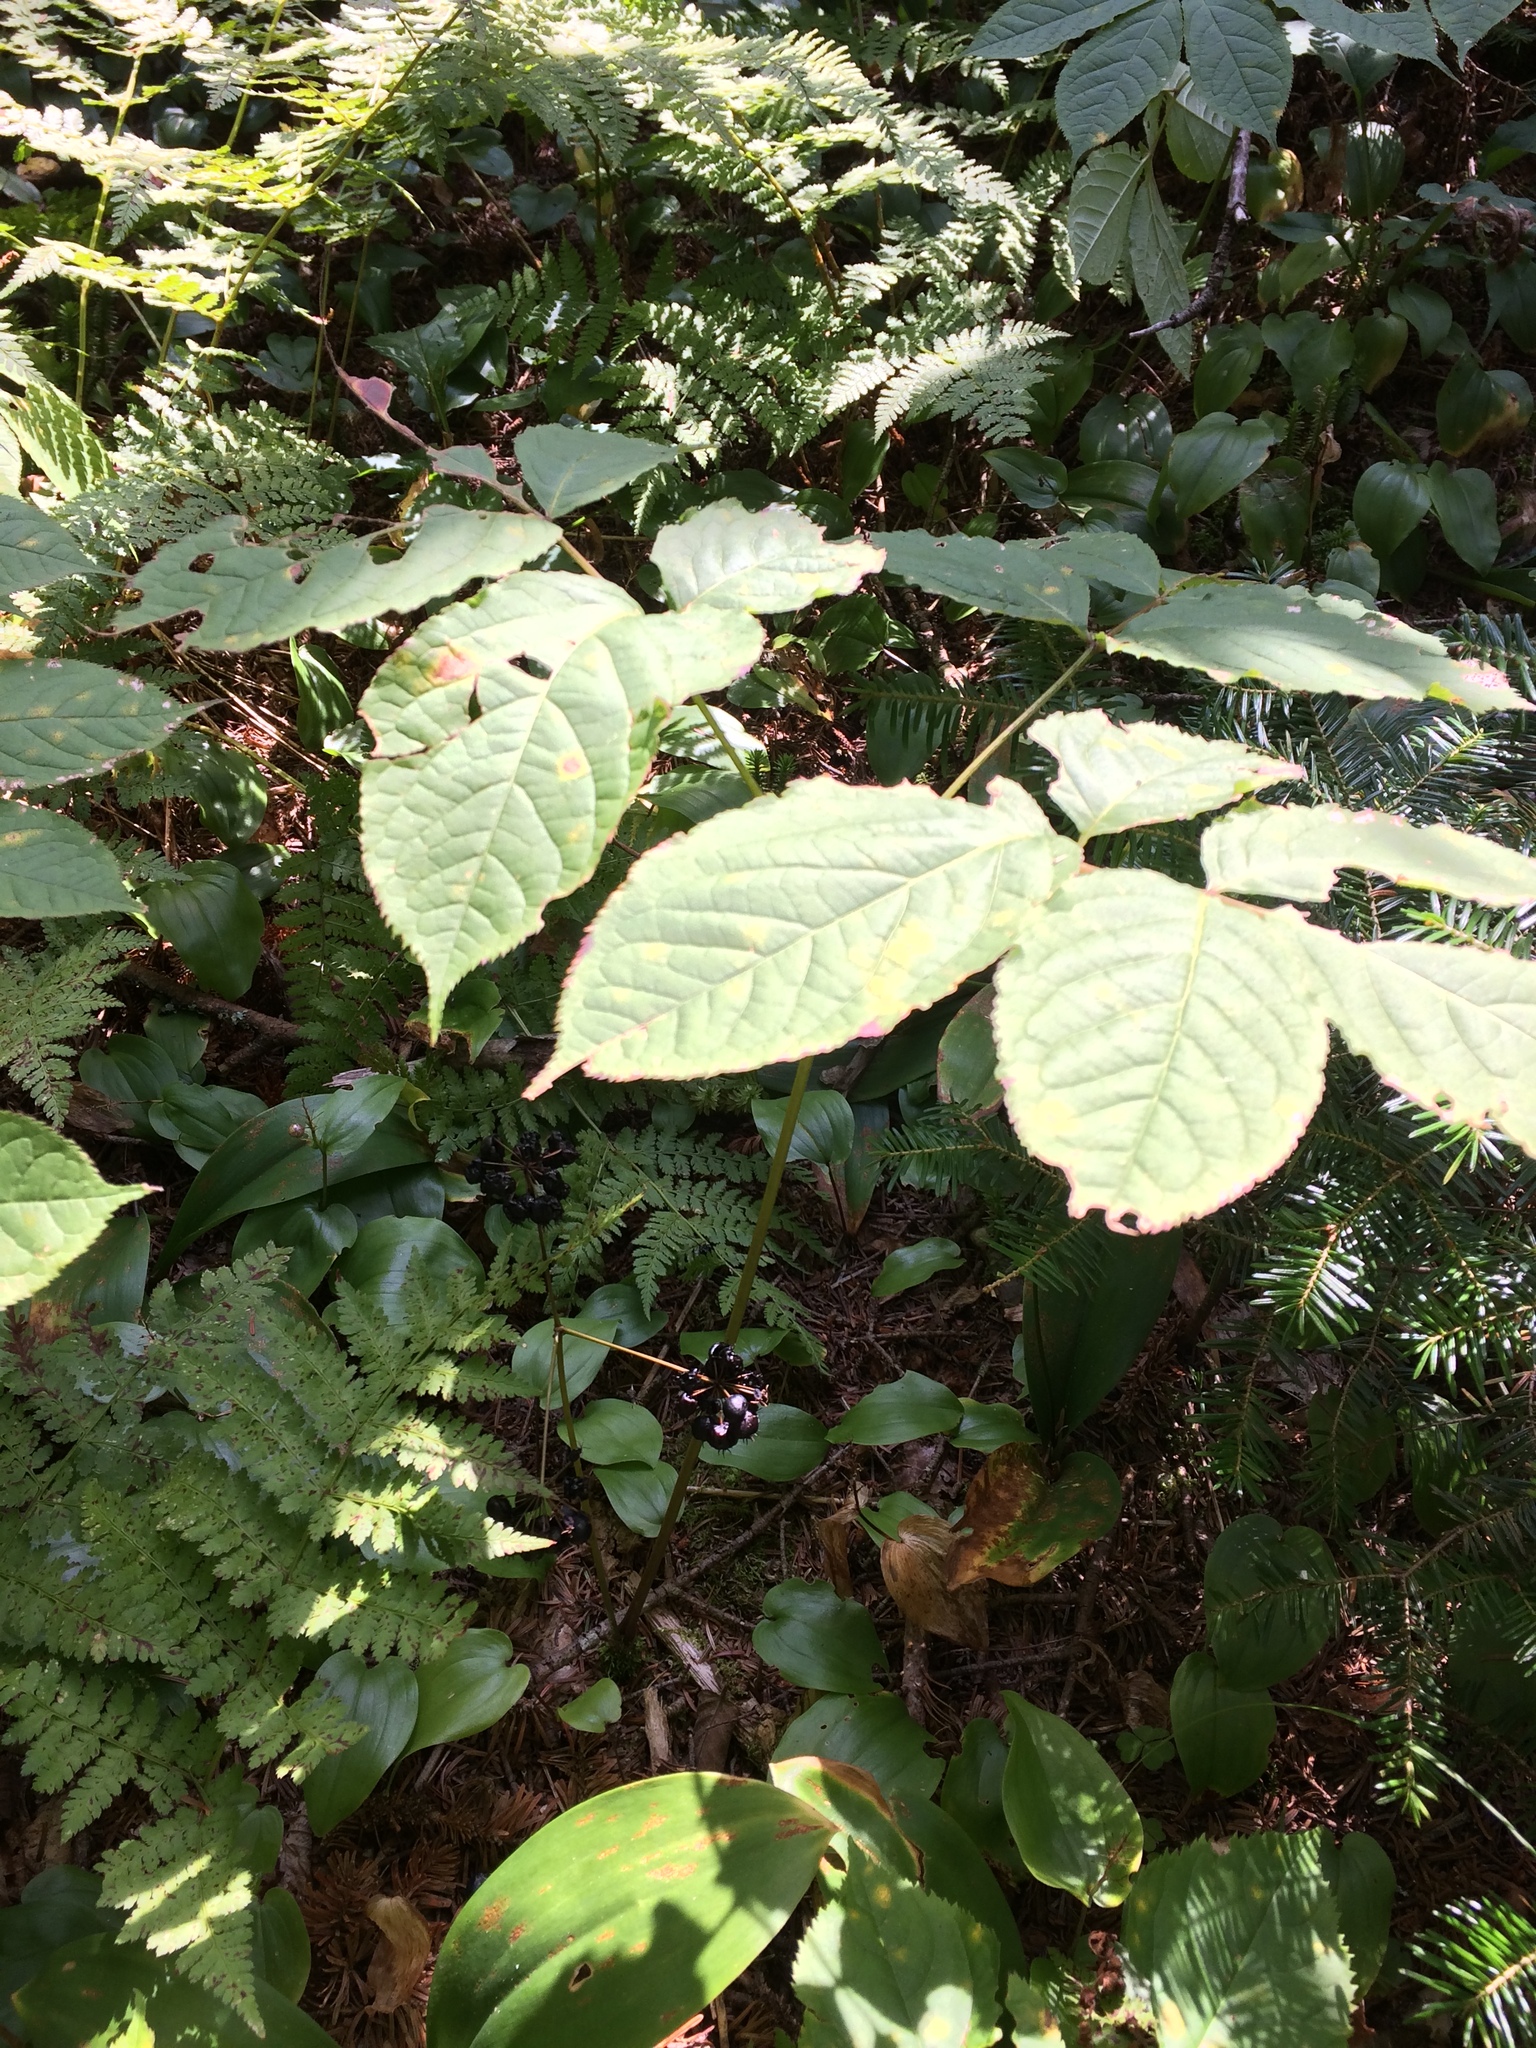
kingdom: Plantae
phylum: Tracheophyta
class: Magnoliopsida
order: Apiales
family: Araliaceae
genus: Aralia
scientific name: Aralia nudicaulis
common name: Wild sarsaparilla
